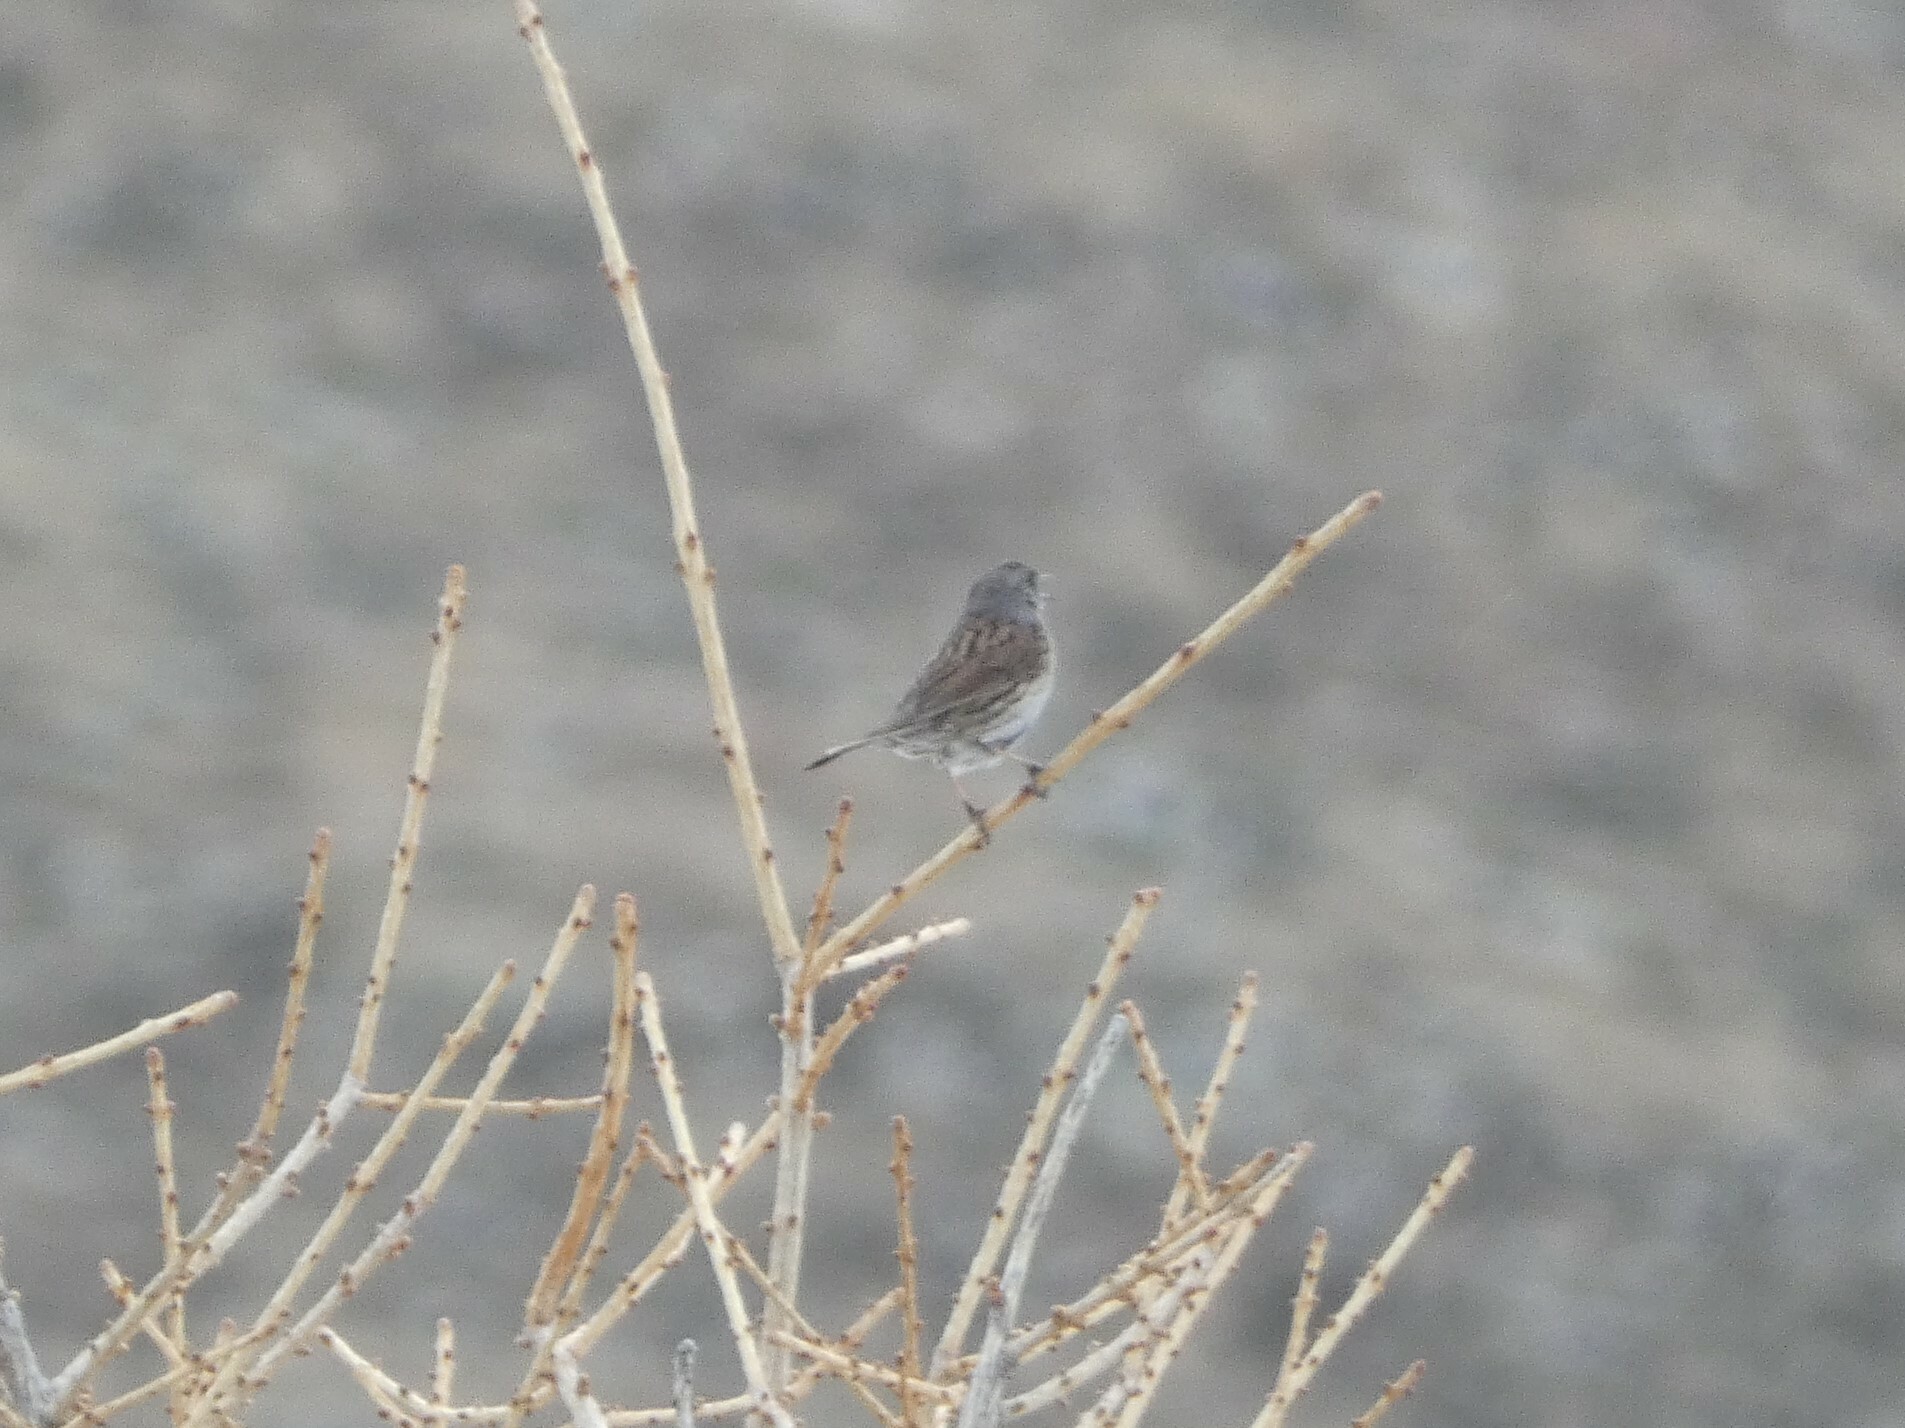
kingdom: Animalia
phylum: Chordata
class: Aves
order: Passeriformes
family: Prunellidae
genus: Prunella
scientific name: Prunella modularis
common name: Dunnock
